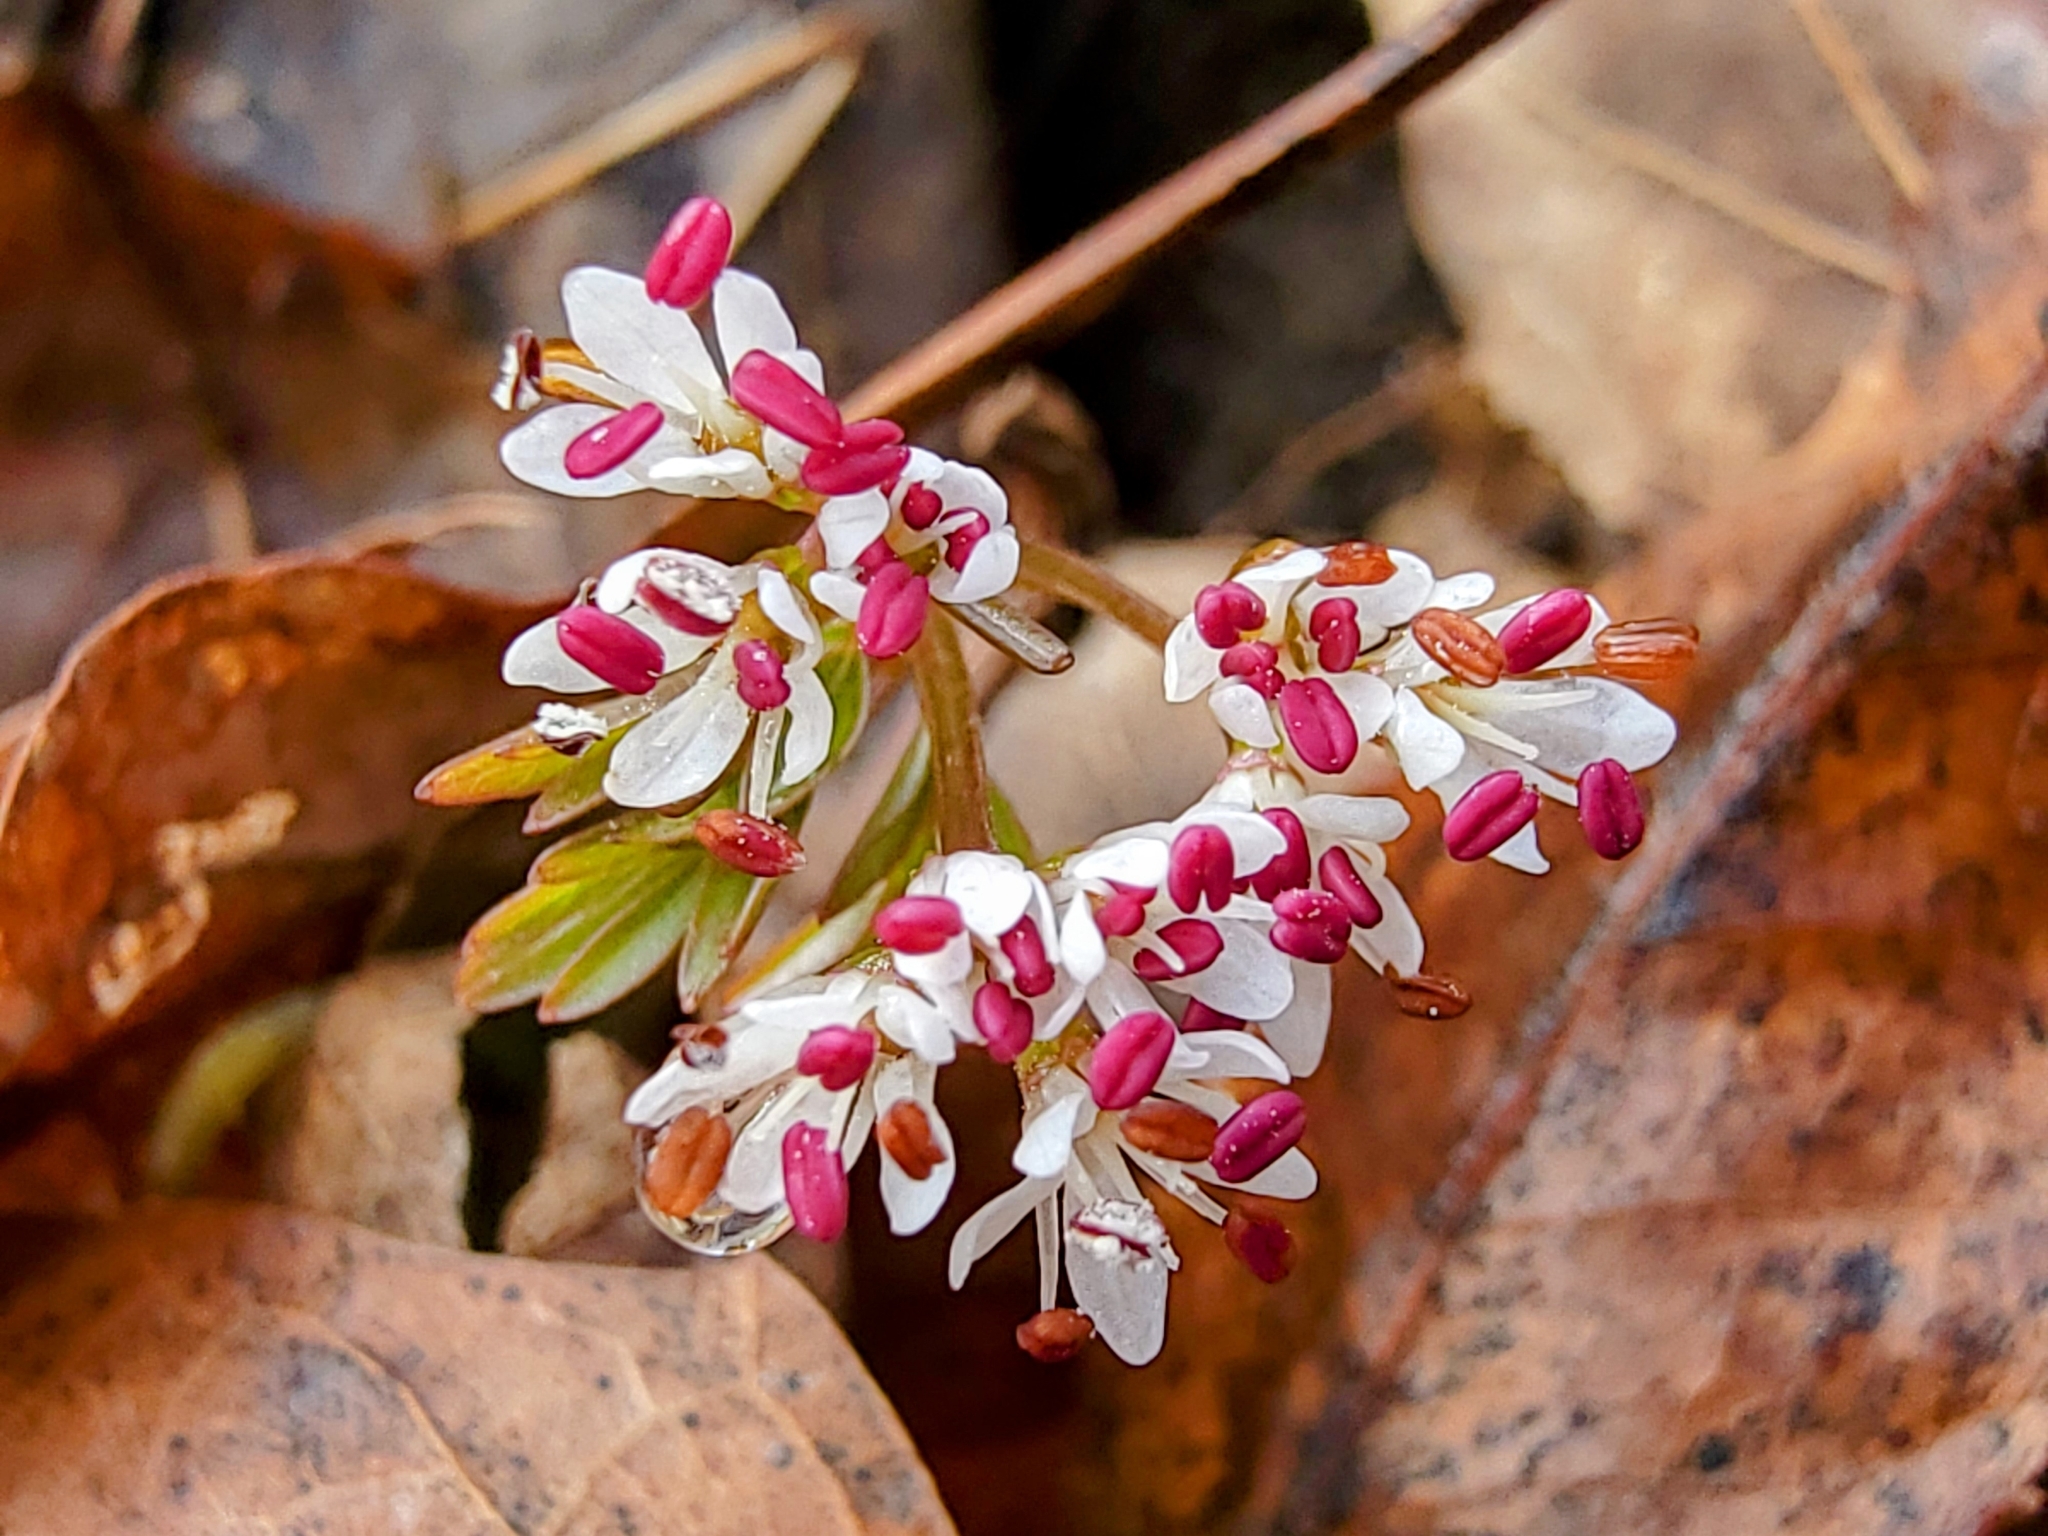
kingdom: Plantae
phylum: Tracheophyta
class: Magnoliopsida
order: Apiales
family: Apiaceae
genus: Erigenia
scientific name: Erigenia bulbosa
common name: Pepper-and-salt
